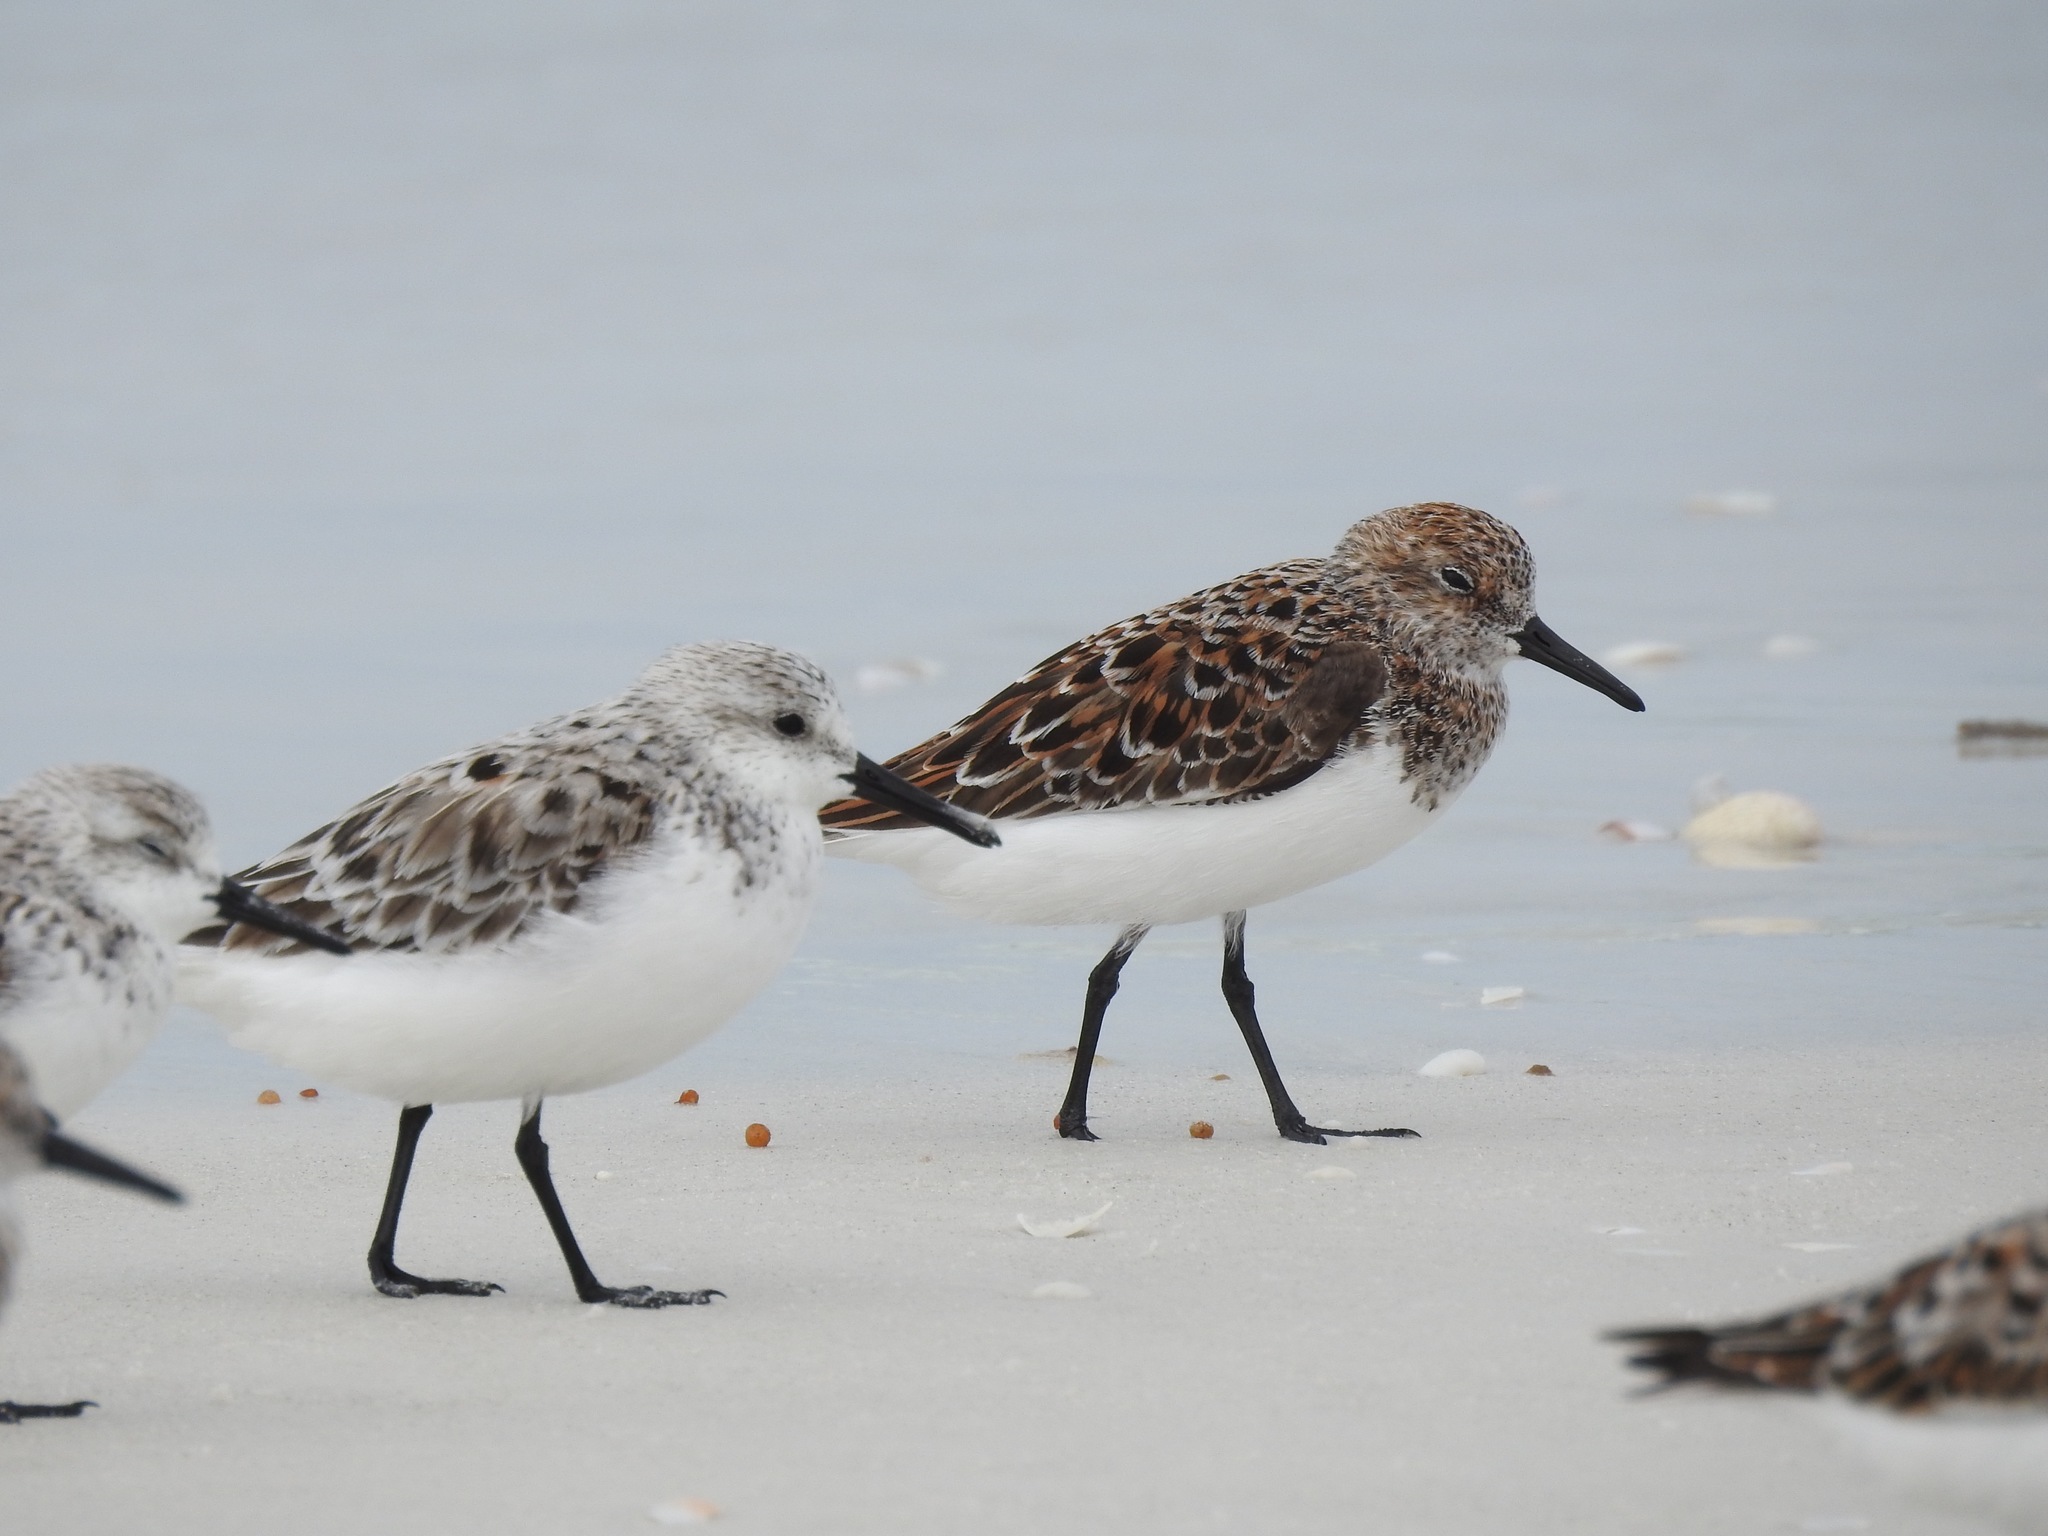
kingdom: Animalia
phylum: Chordata
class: Aves
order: Charadriiformes
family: Scolopacidae
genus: Calidris
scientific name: Calidris alba
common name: Sanderling
